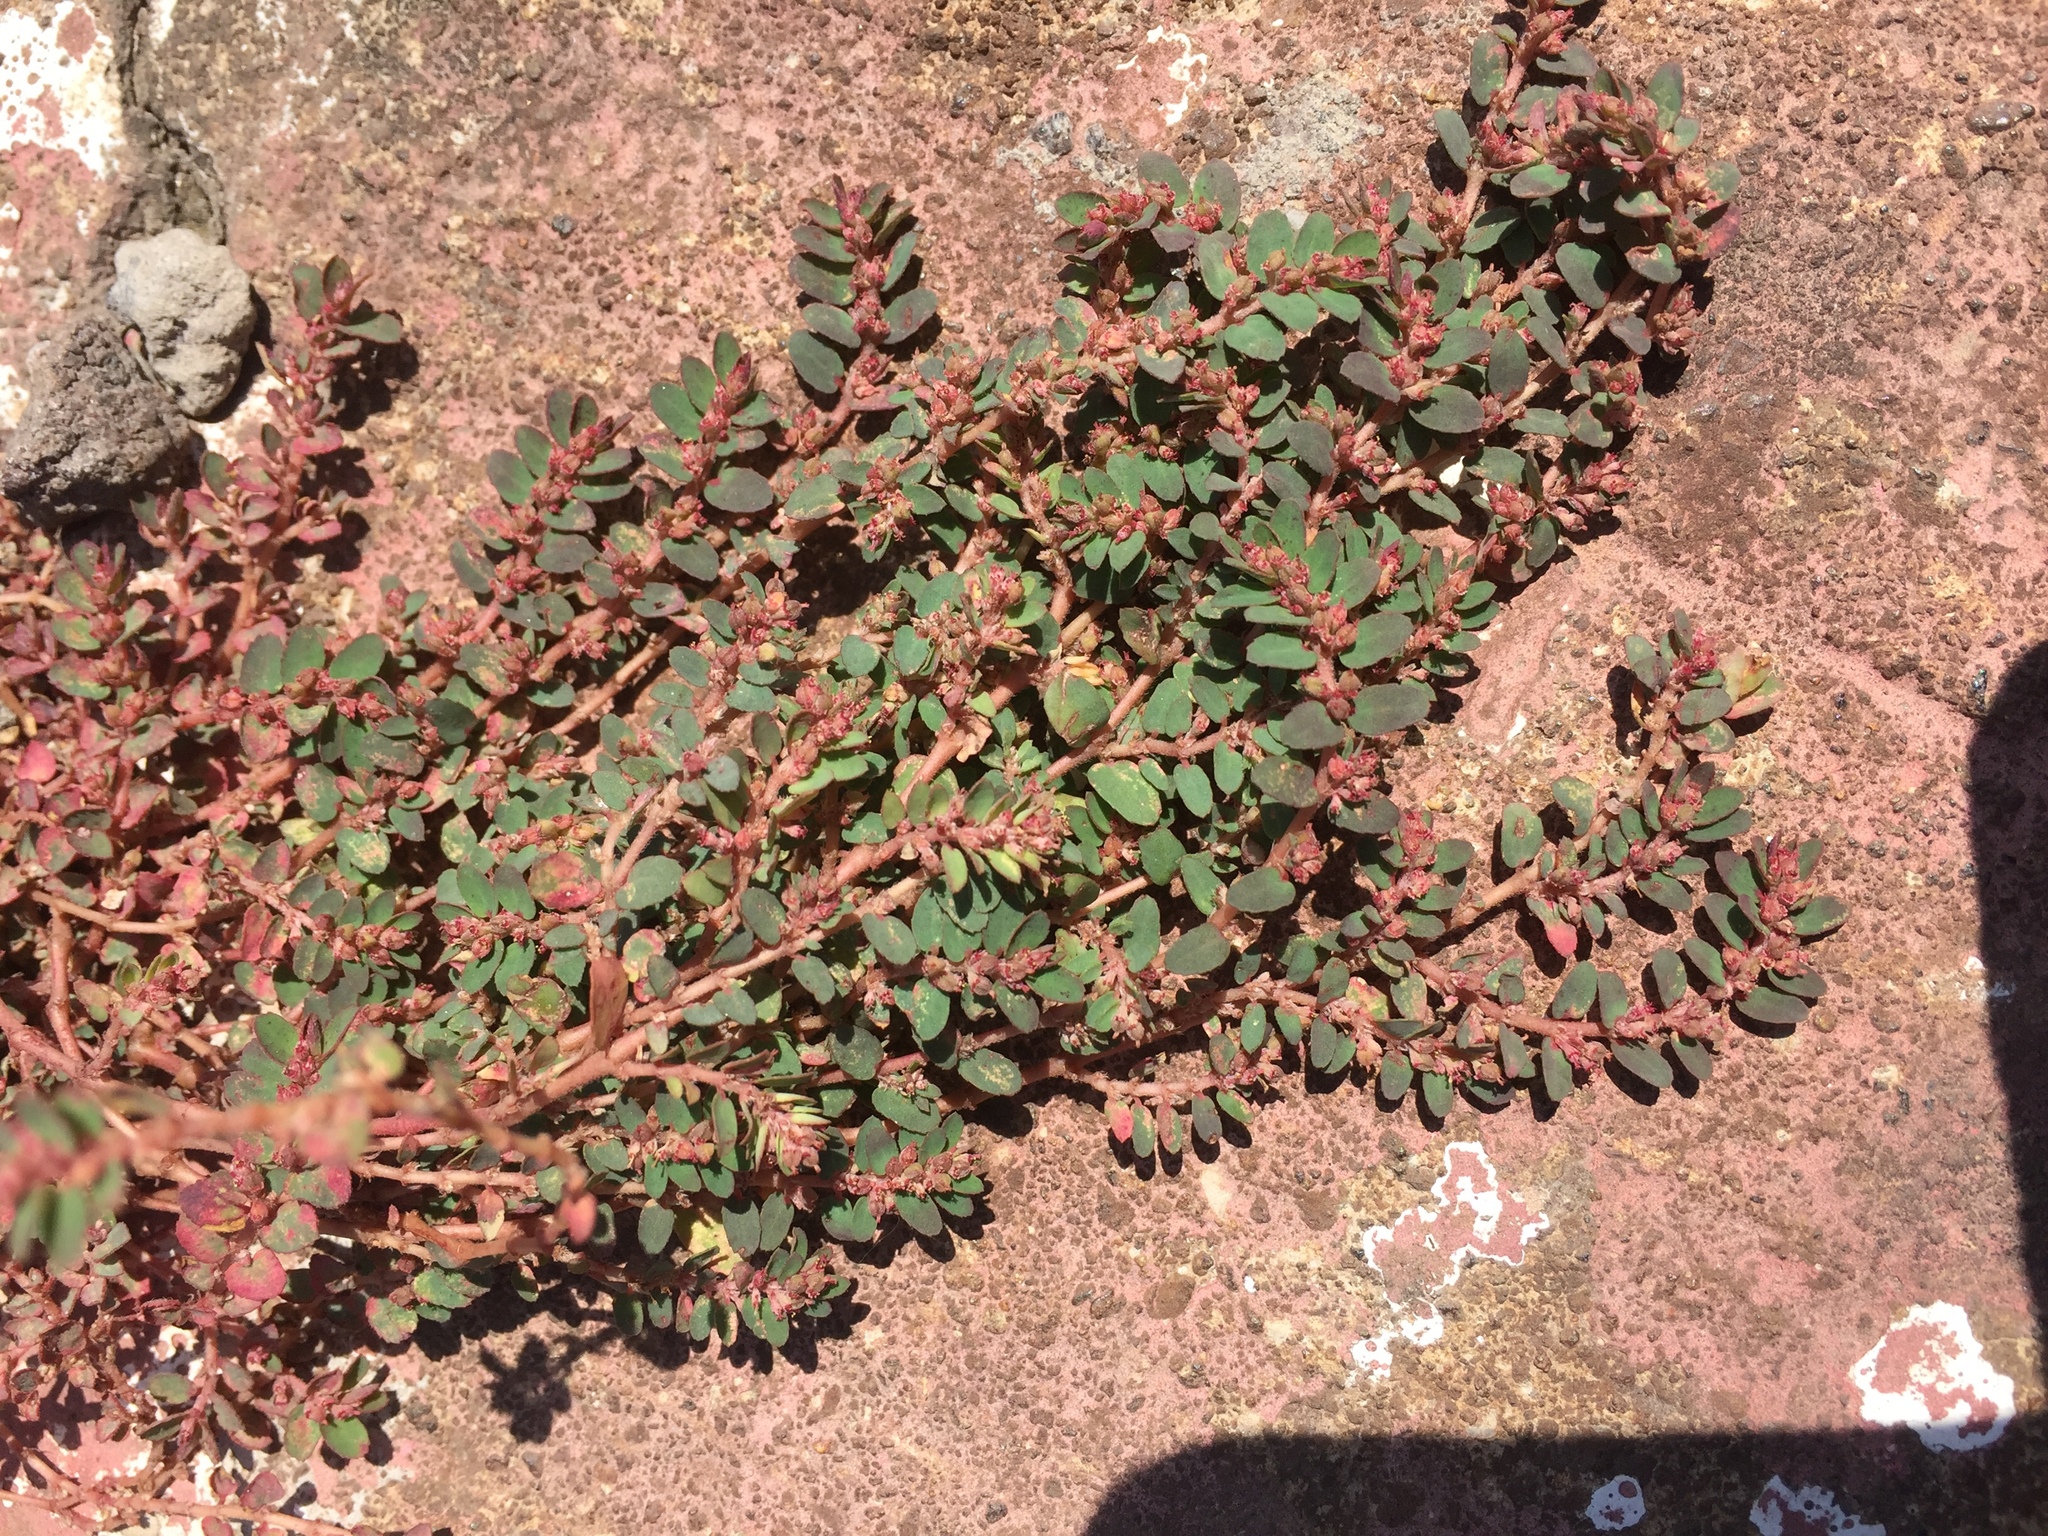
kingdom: Plantae
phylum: Tracheophyta
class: Magnoliopsida
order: Malpighiales
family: Euphorbiaceae
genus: Euphorbia
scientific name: Euphorbia thymifolia
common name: Gulf sandmat
